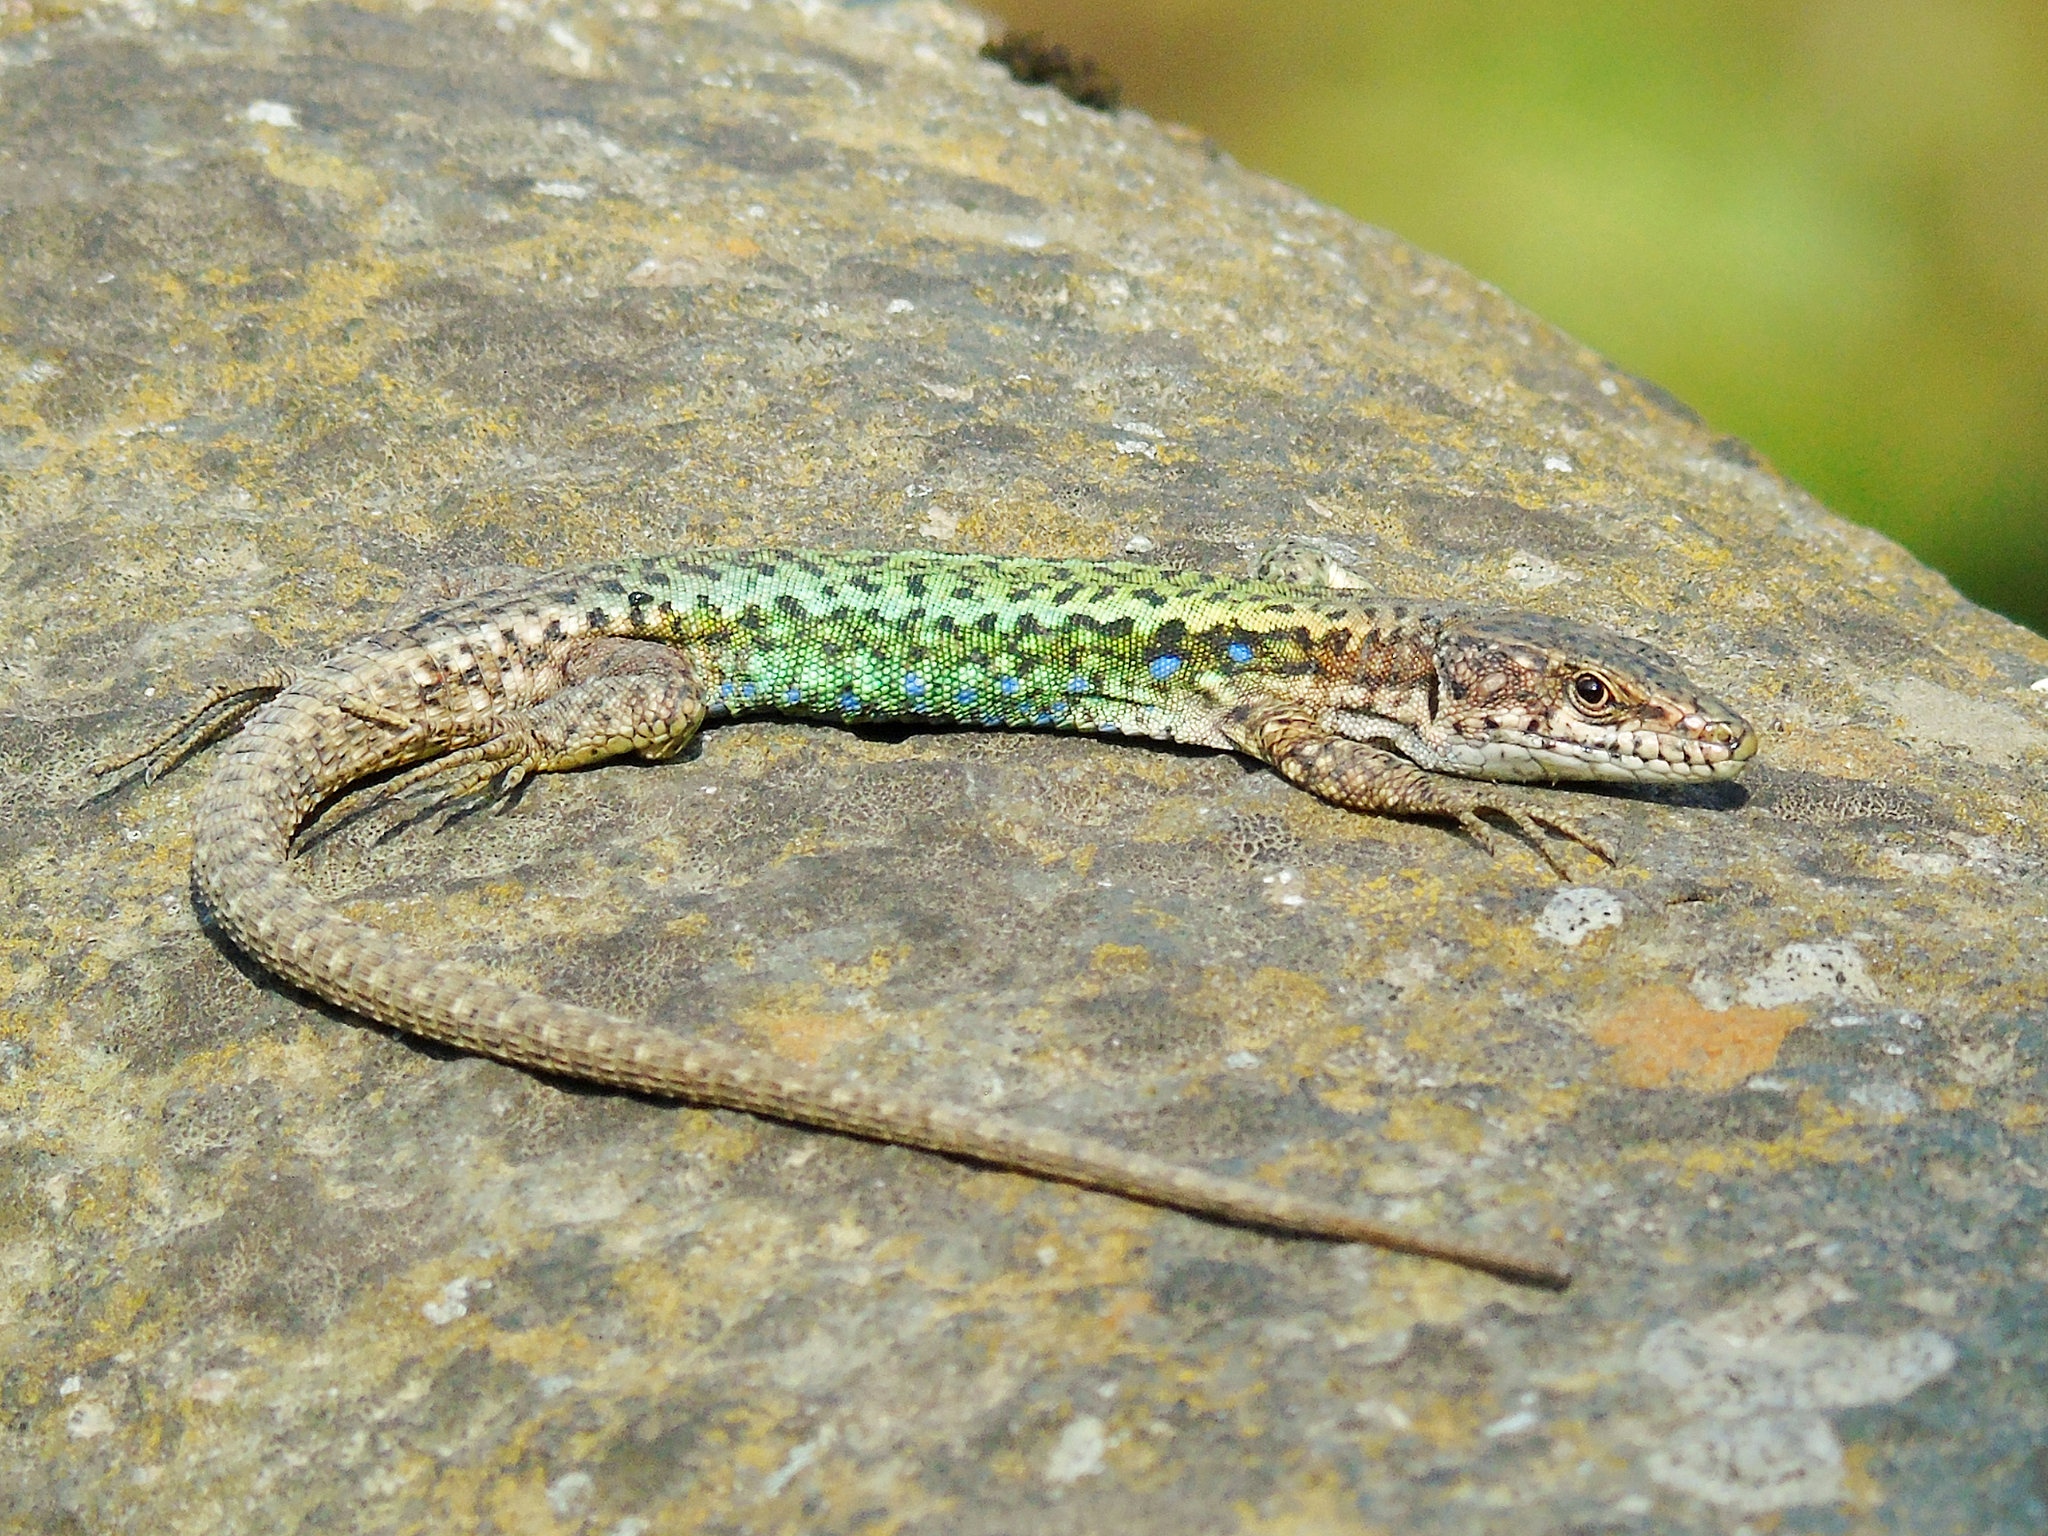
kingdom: Animalia
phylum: Chordata
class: Squamata
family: Lacertidae
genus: Darevskia
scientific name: Darevskia rudis
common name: Spiny-tailed lizard
